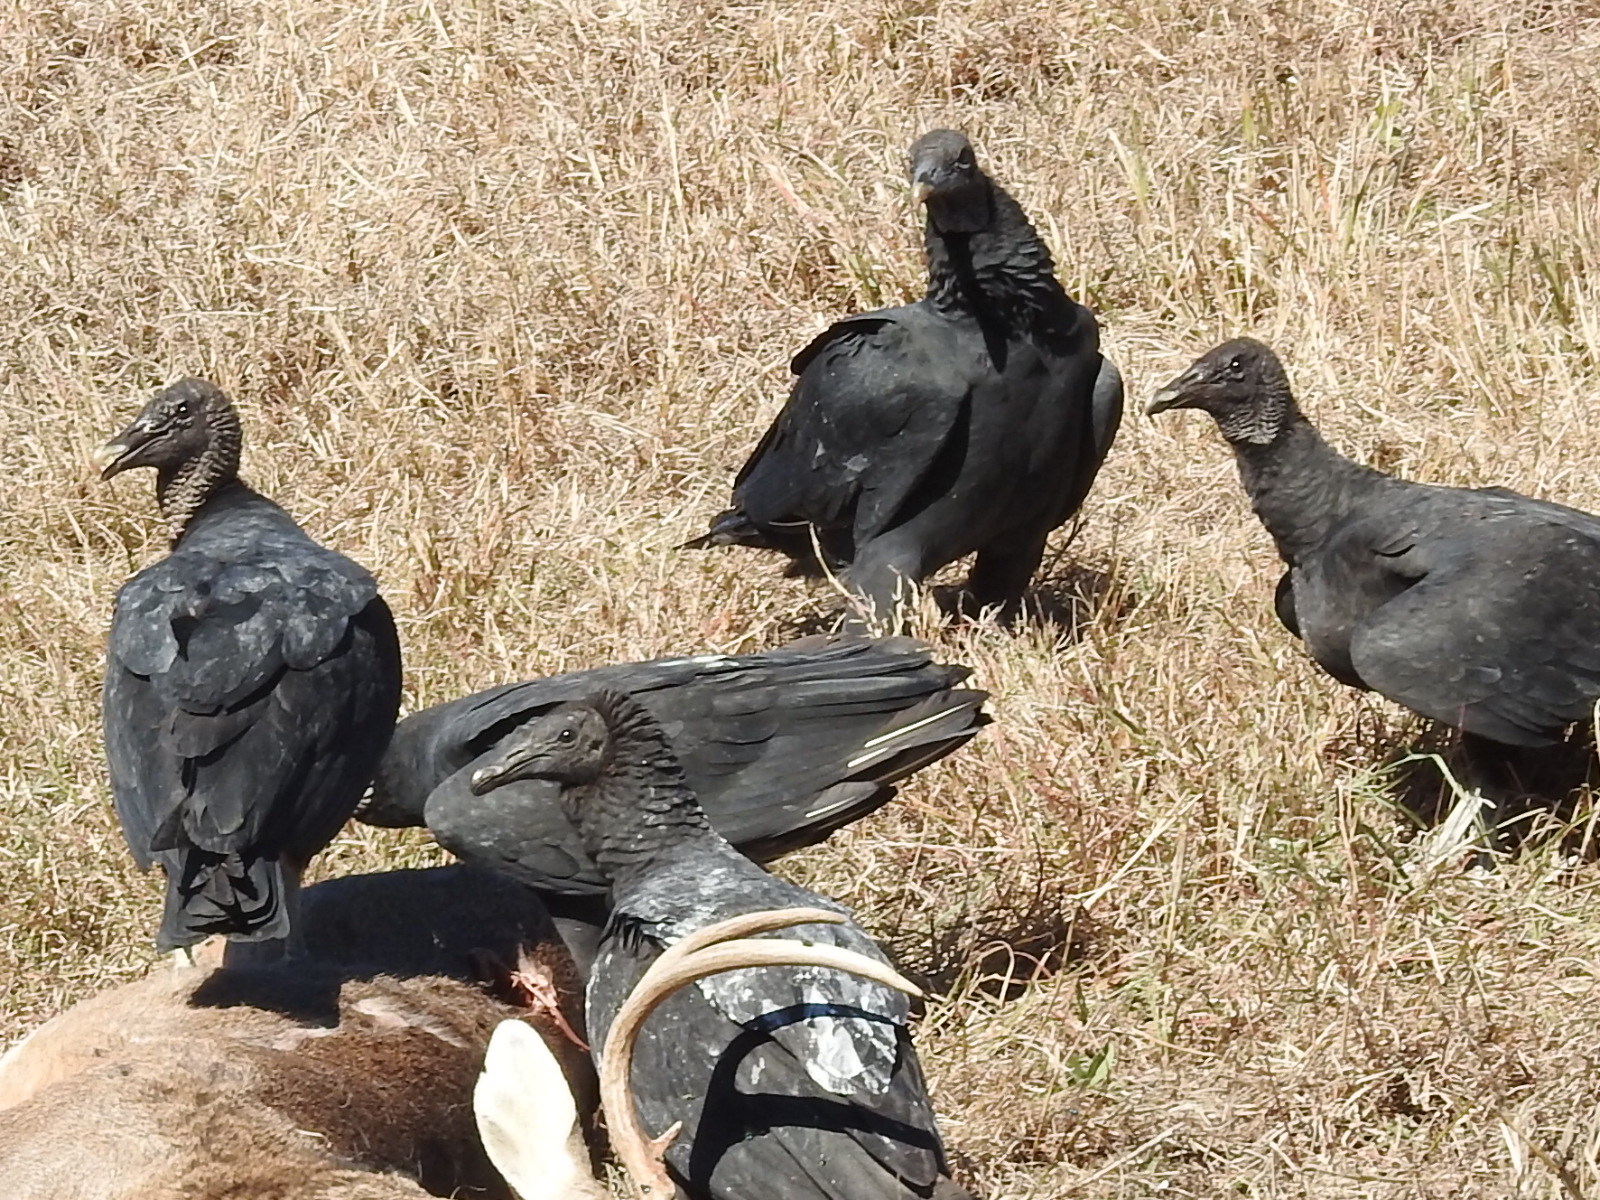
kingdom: Animalia
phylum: Chordata
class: Aves
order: Accipitriformes
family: Cathartidae
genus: Coragyps
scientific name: Coragyps atratus
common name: Black vulture
